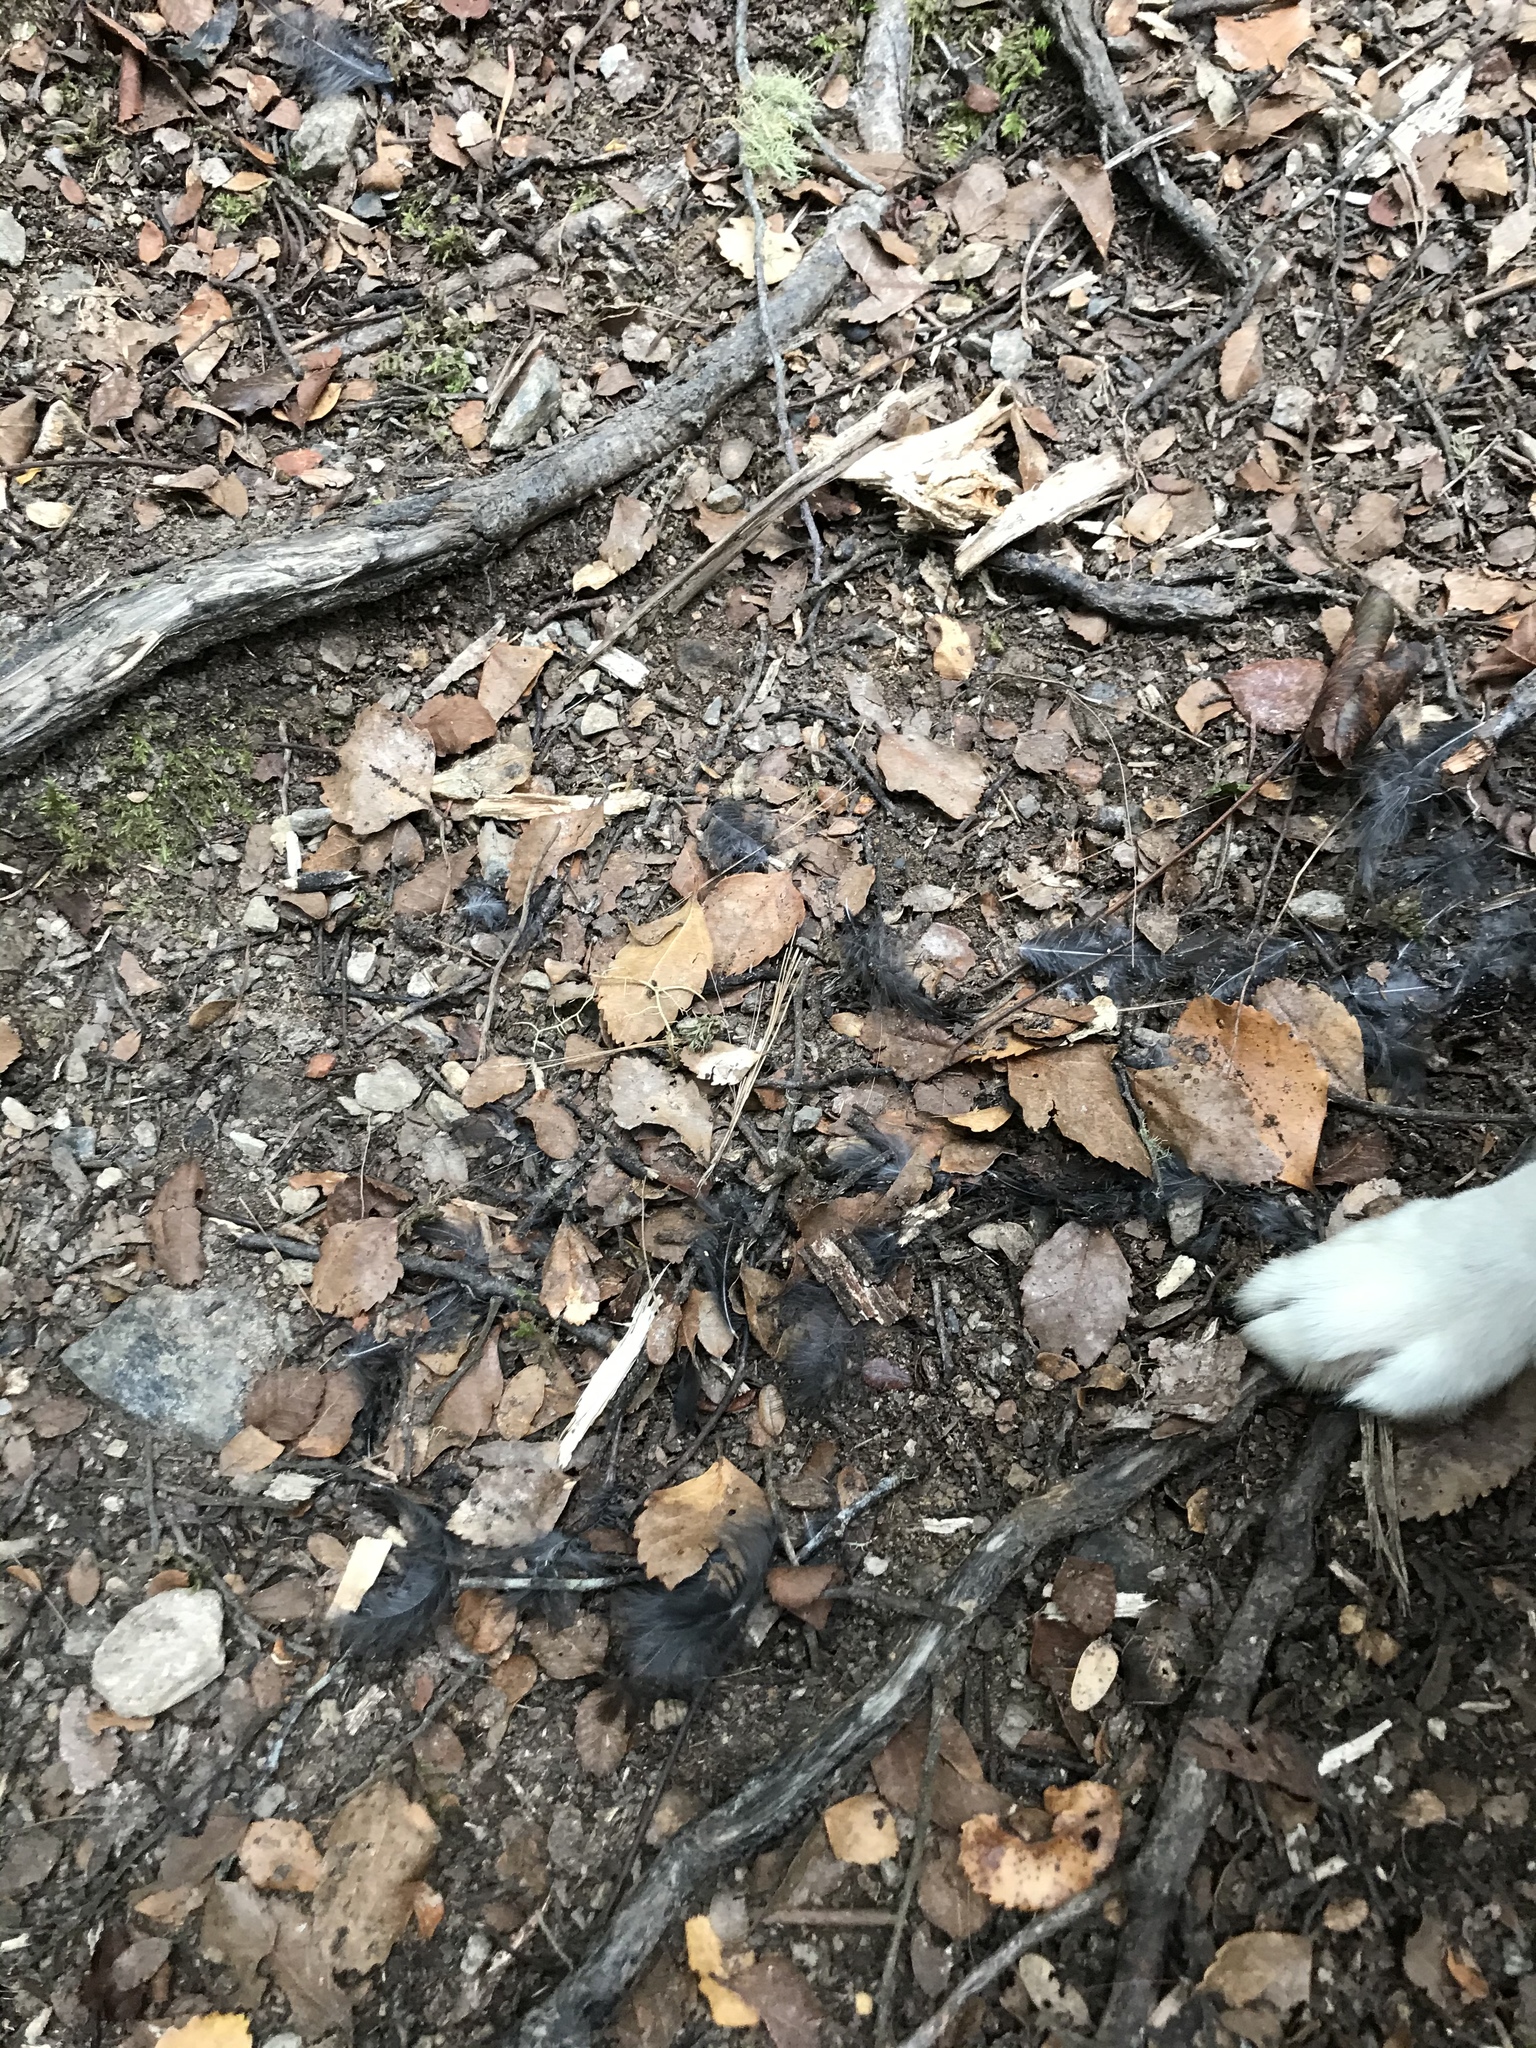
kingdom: Animalia
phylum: Chordata
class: Aves
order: Falconiformes
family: Falconidae
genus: Falco
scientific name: Falco novaeseelandiae
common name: New zealand falcon
